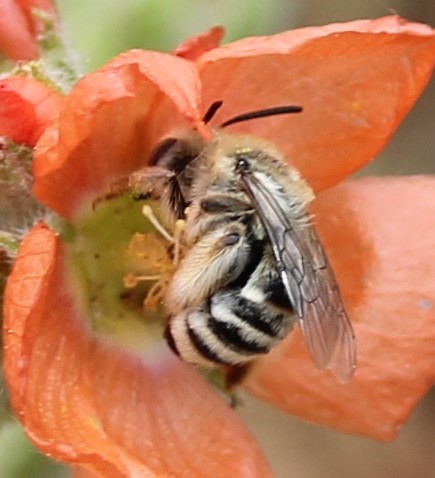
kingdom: Animalia
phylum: Arthropoda
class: Insecta
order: Hymenoptera
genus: Eumelissodes
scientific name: Eumelissodes
